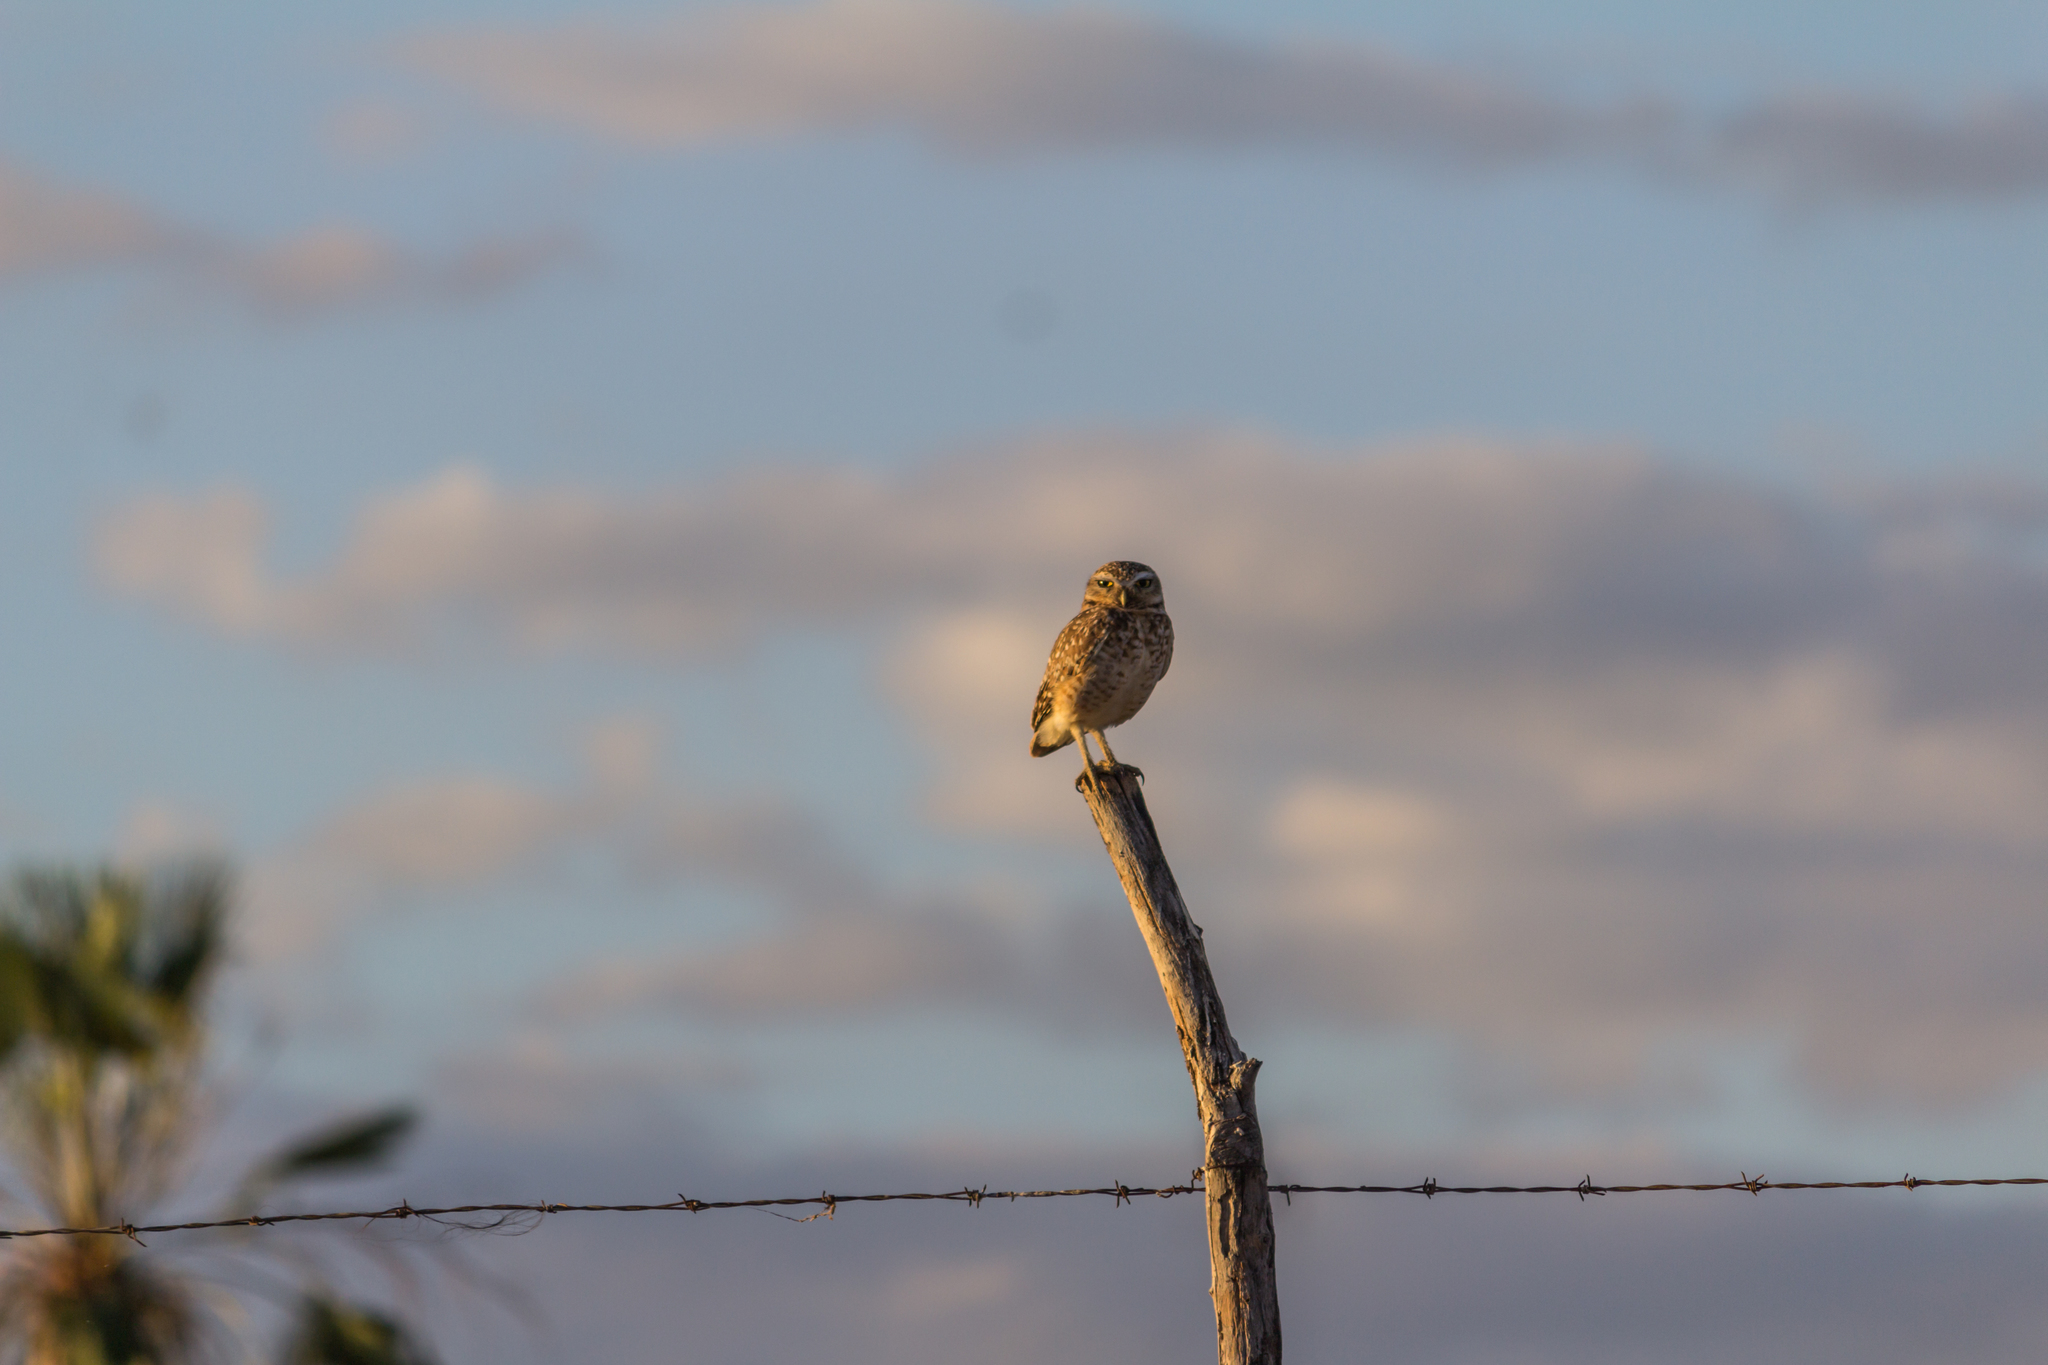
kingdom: Animalia
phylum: Chordata
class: Aves
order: Strigiformes
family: Strigidae
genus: Athene
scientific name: Athene cunicularia
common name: Burrowing owl
